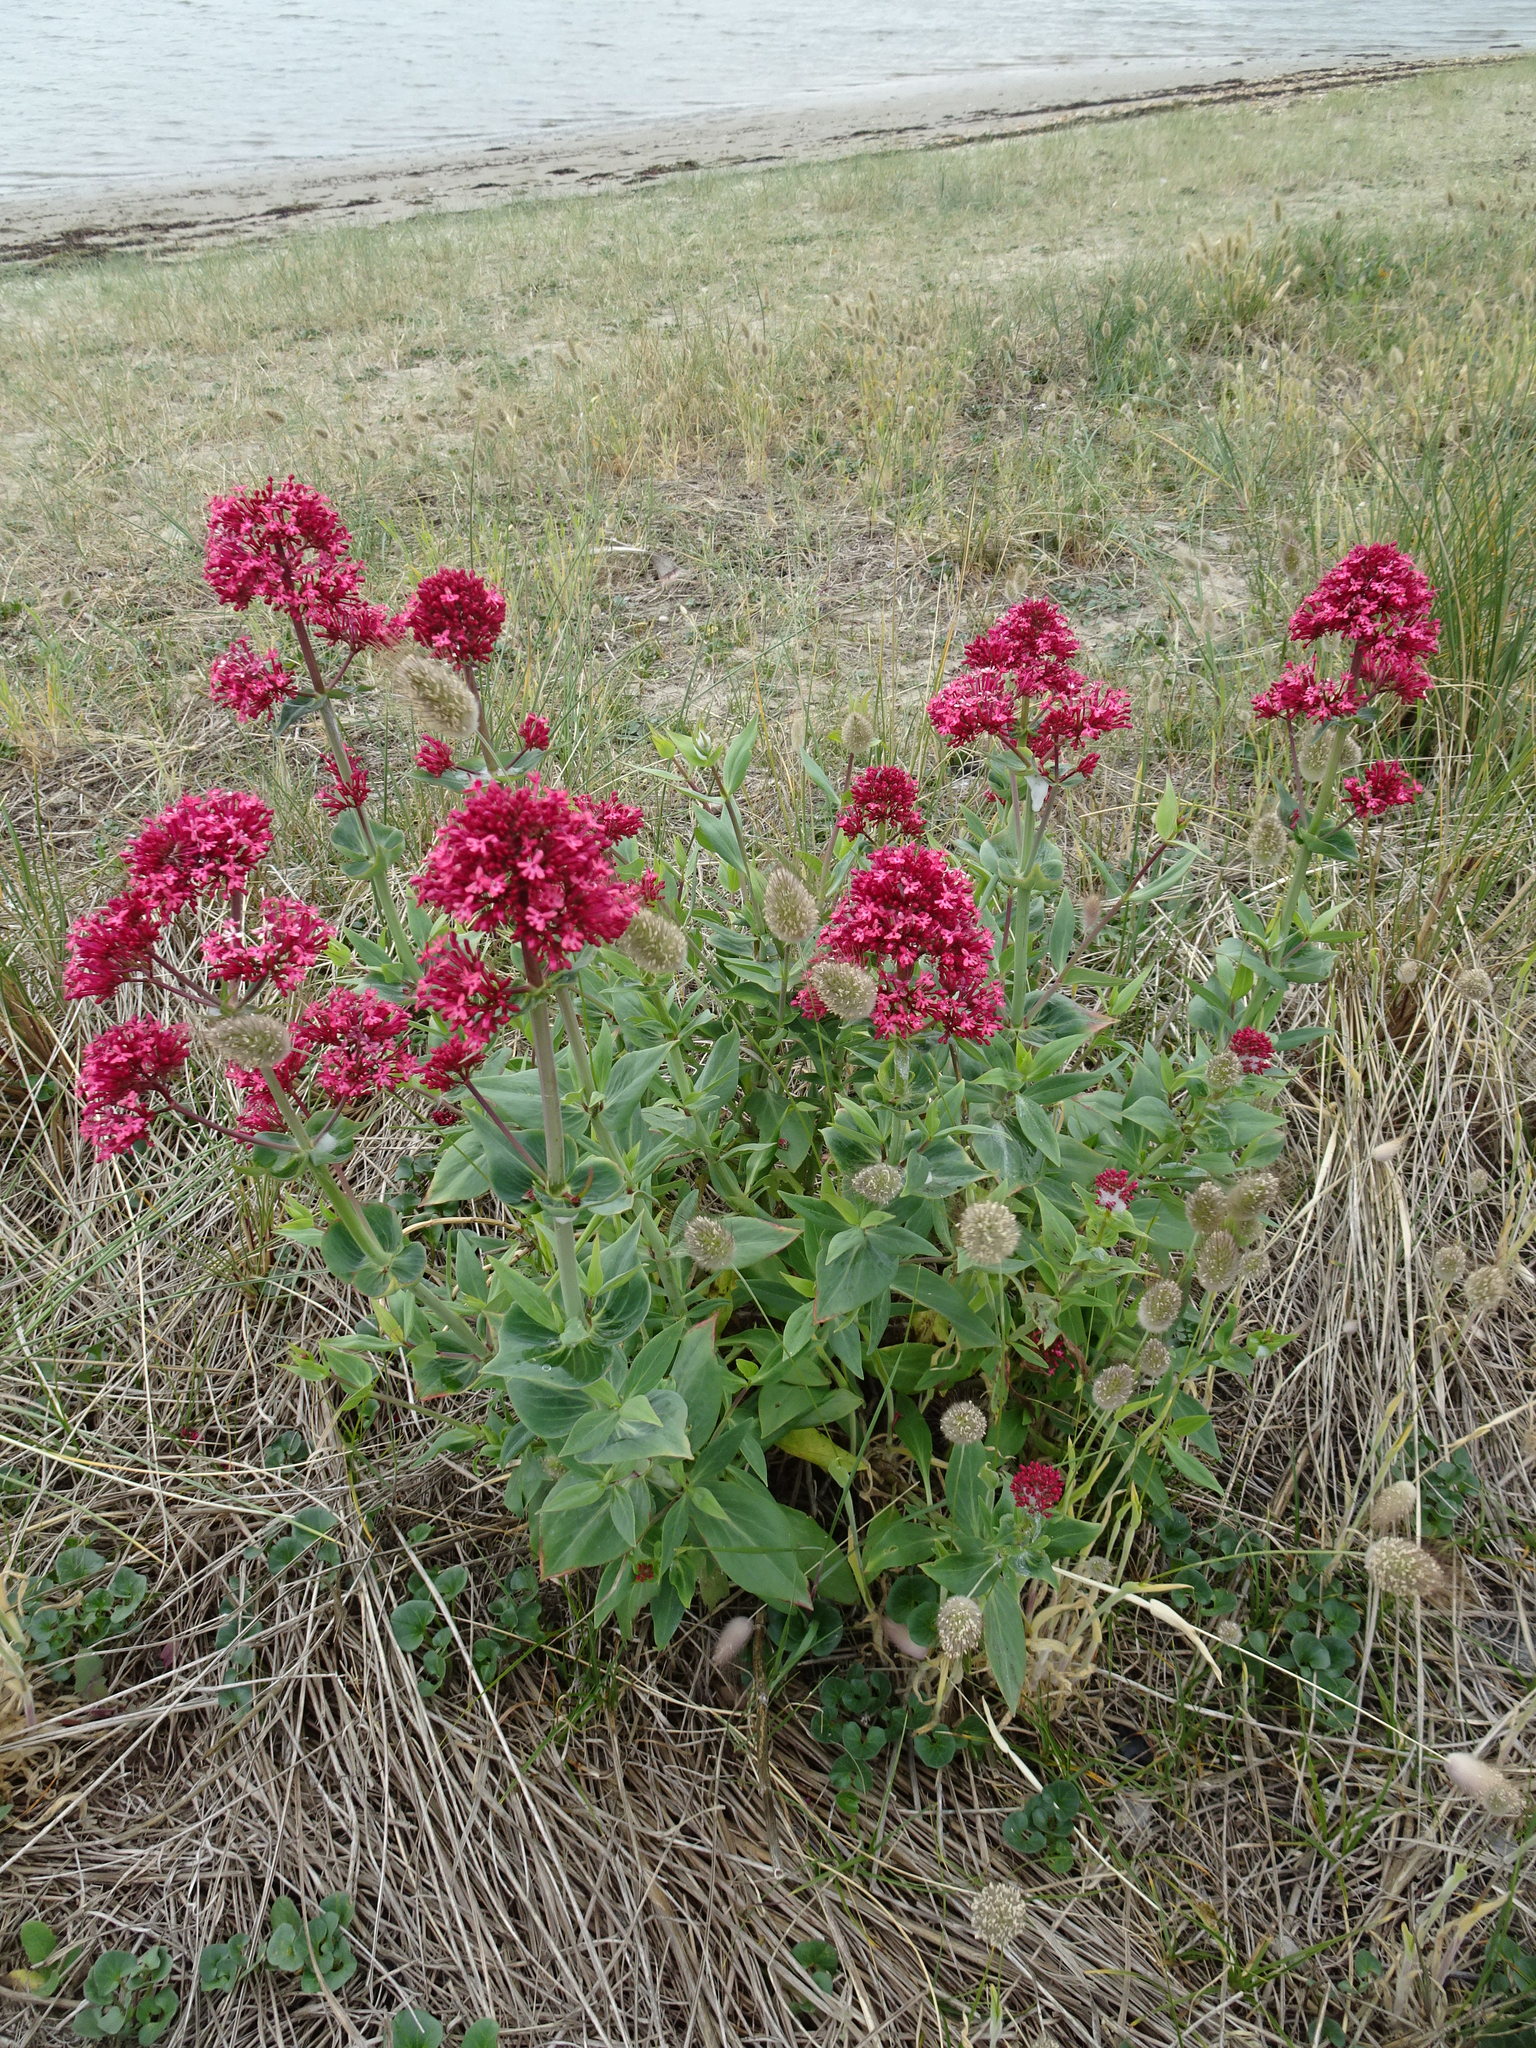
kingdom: Plantae
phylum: Tracheophyta
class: Magnoliopsida
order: Dipsacales
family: Caprifoliaceae
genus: Centranthus
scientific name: Centranthus ruber
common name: Red valerian
